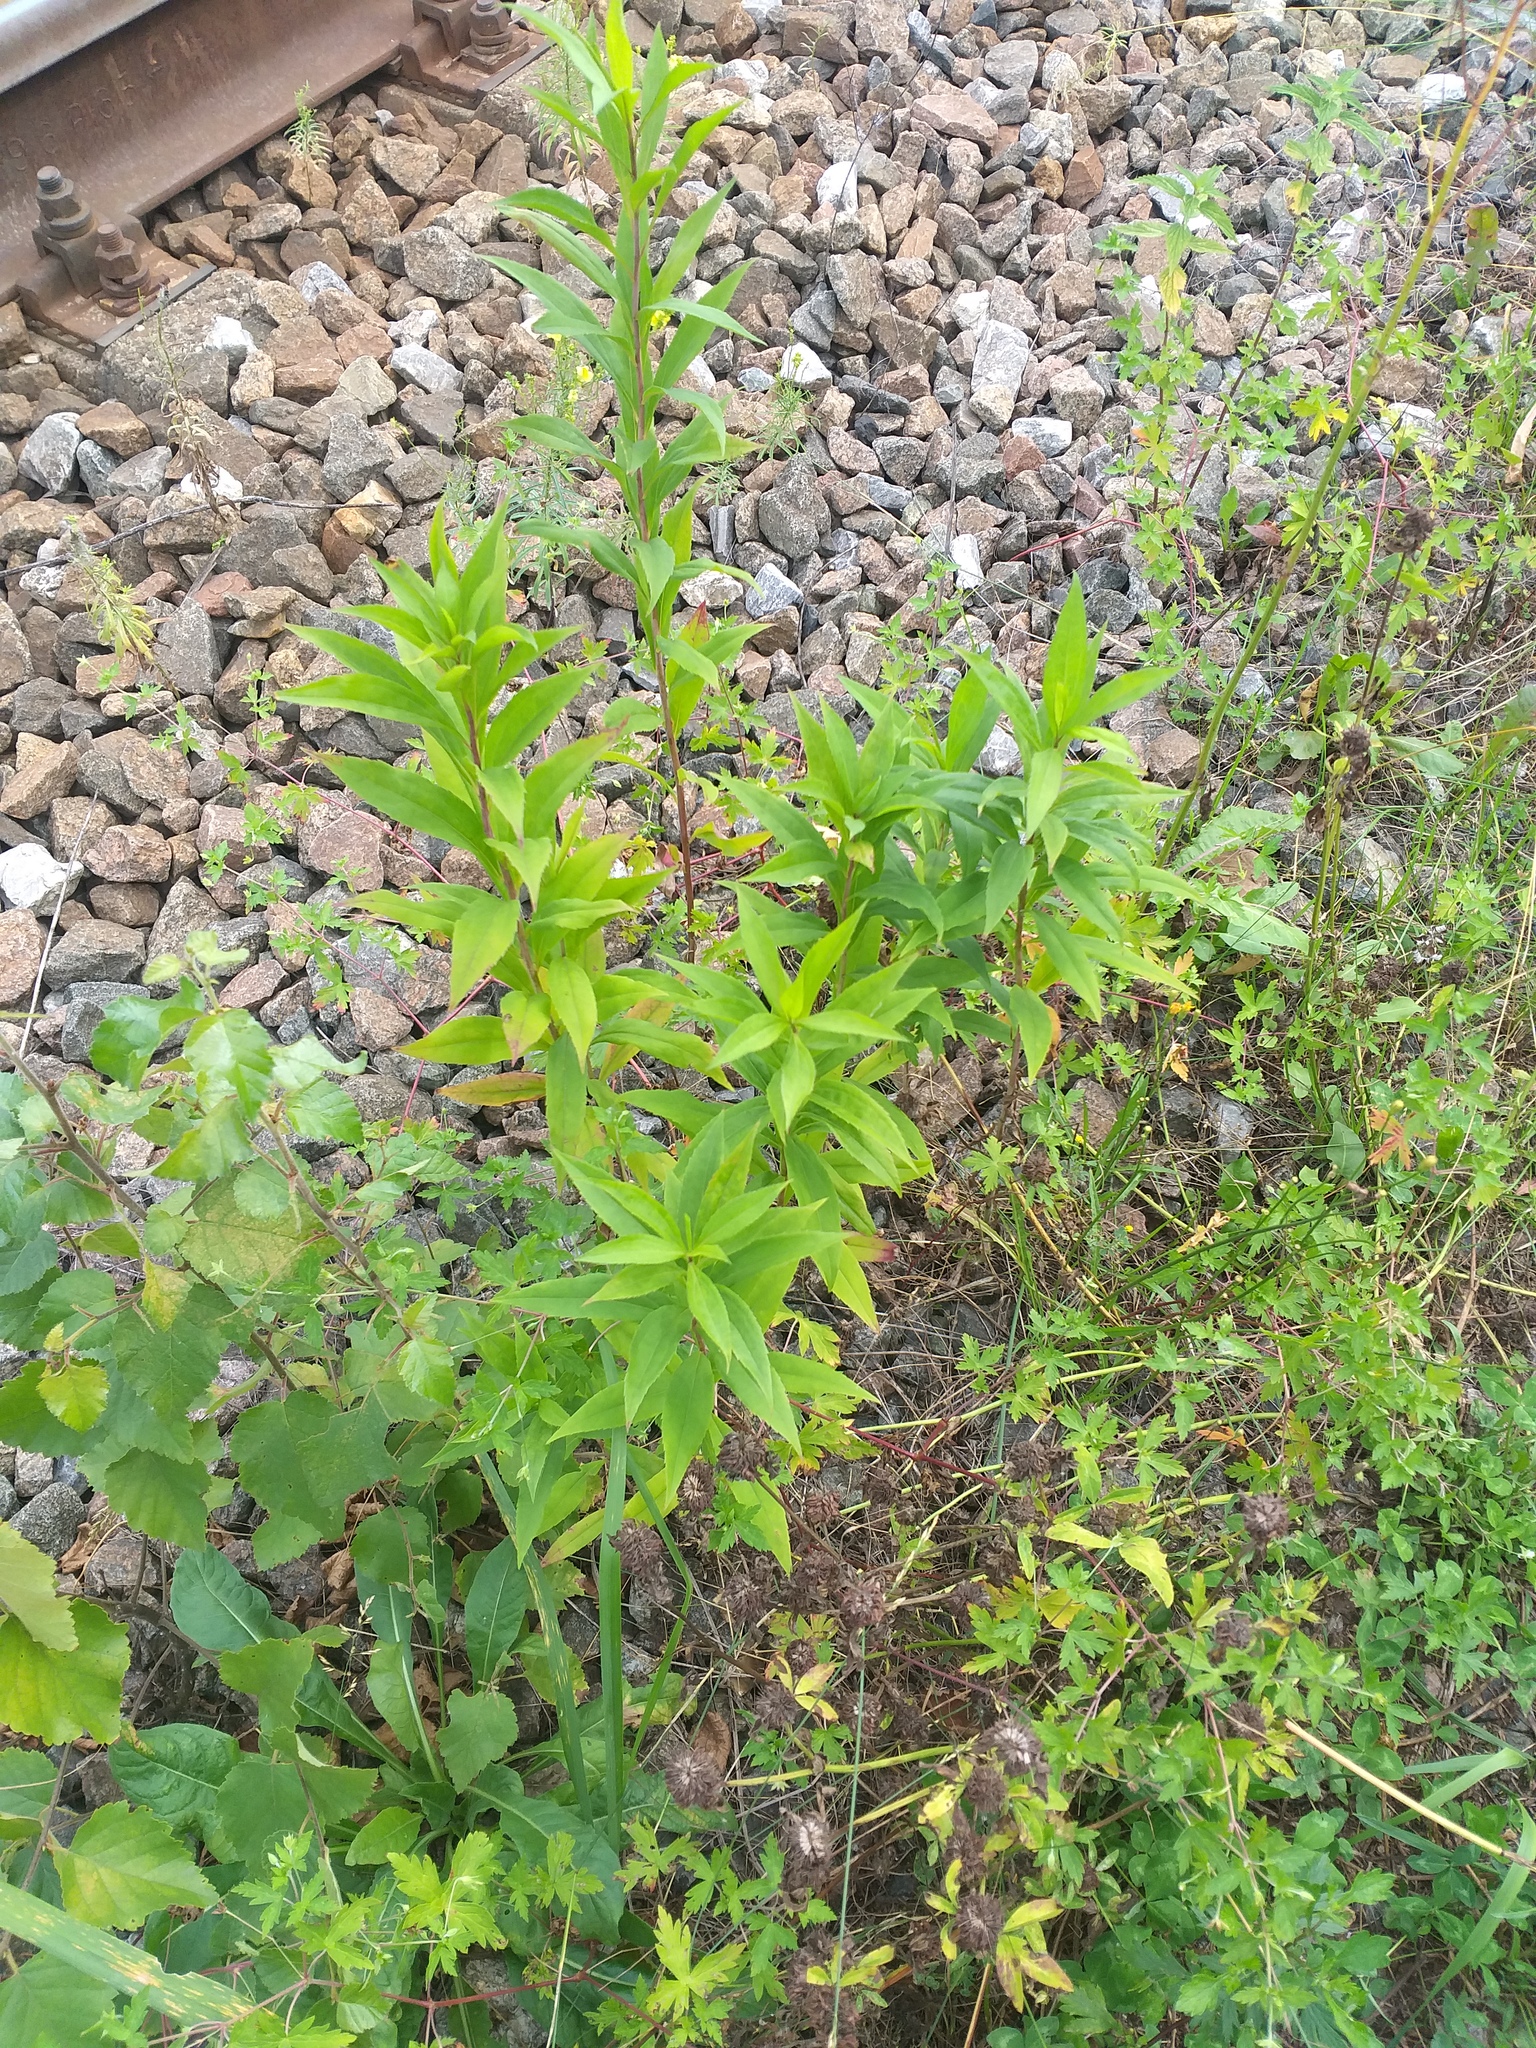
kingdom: Plantae
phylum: Tracheophyta
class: Magnoliopsida
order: Asterales
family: Asteraceae
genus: Solidago
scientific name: Solidago gigantea
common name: Giant goldenrod
